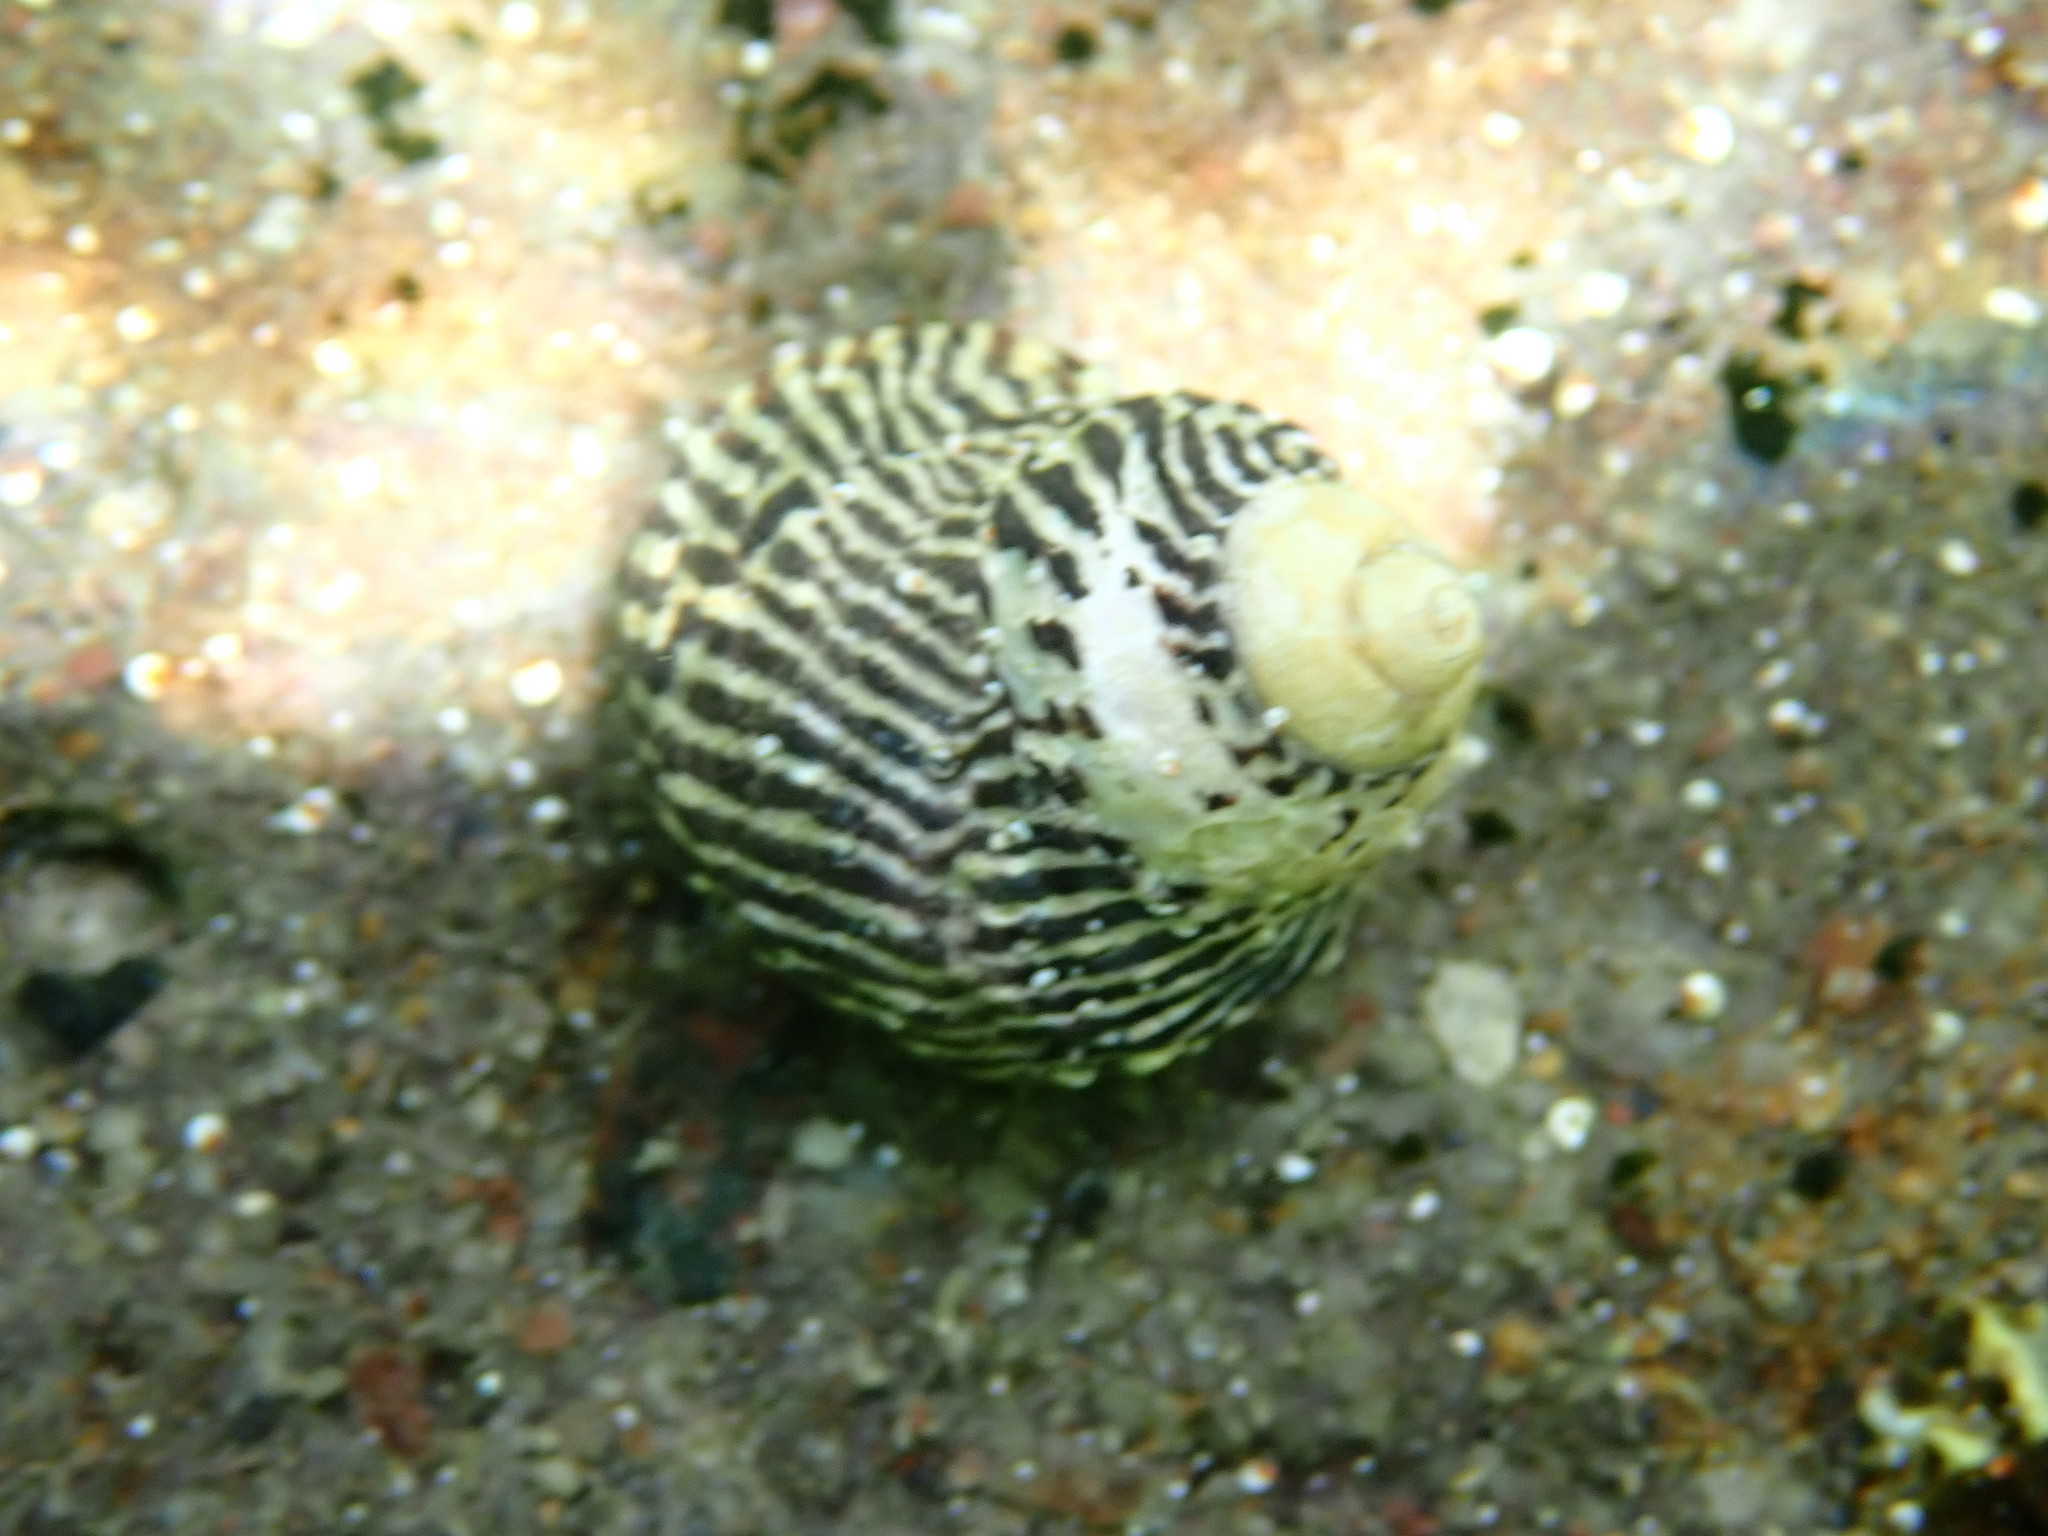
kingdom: Animalia
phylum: Mollusca
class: Gastropoda
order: Trochida
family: Trochidae
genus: Austrocochlea
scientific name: Austrocochlea porcata
